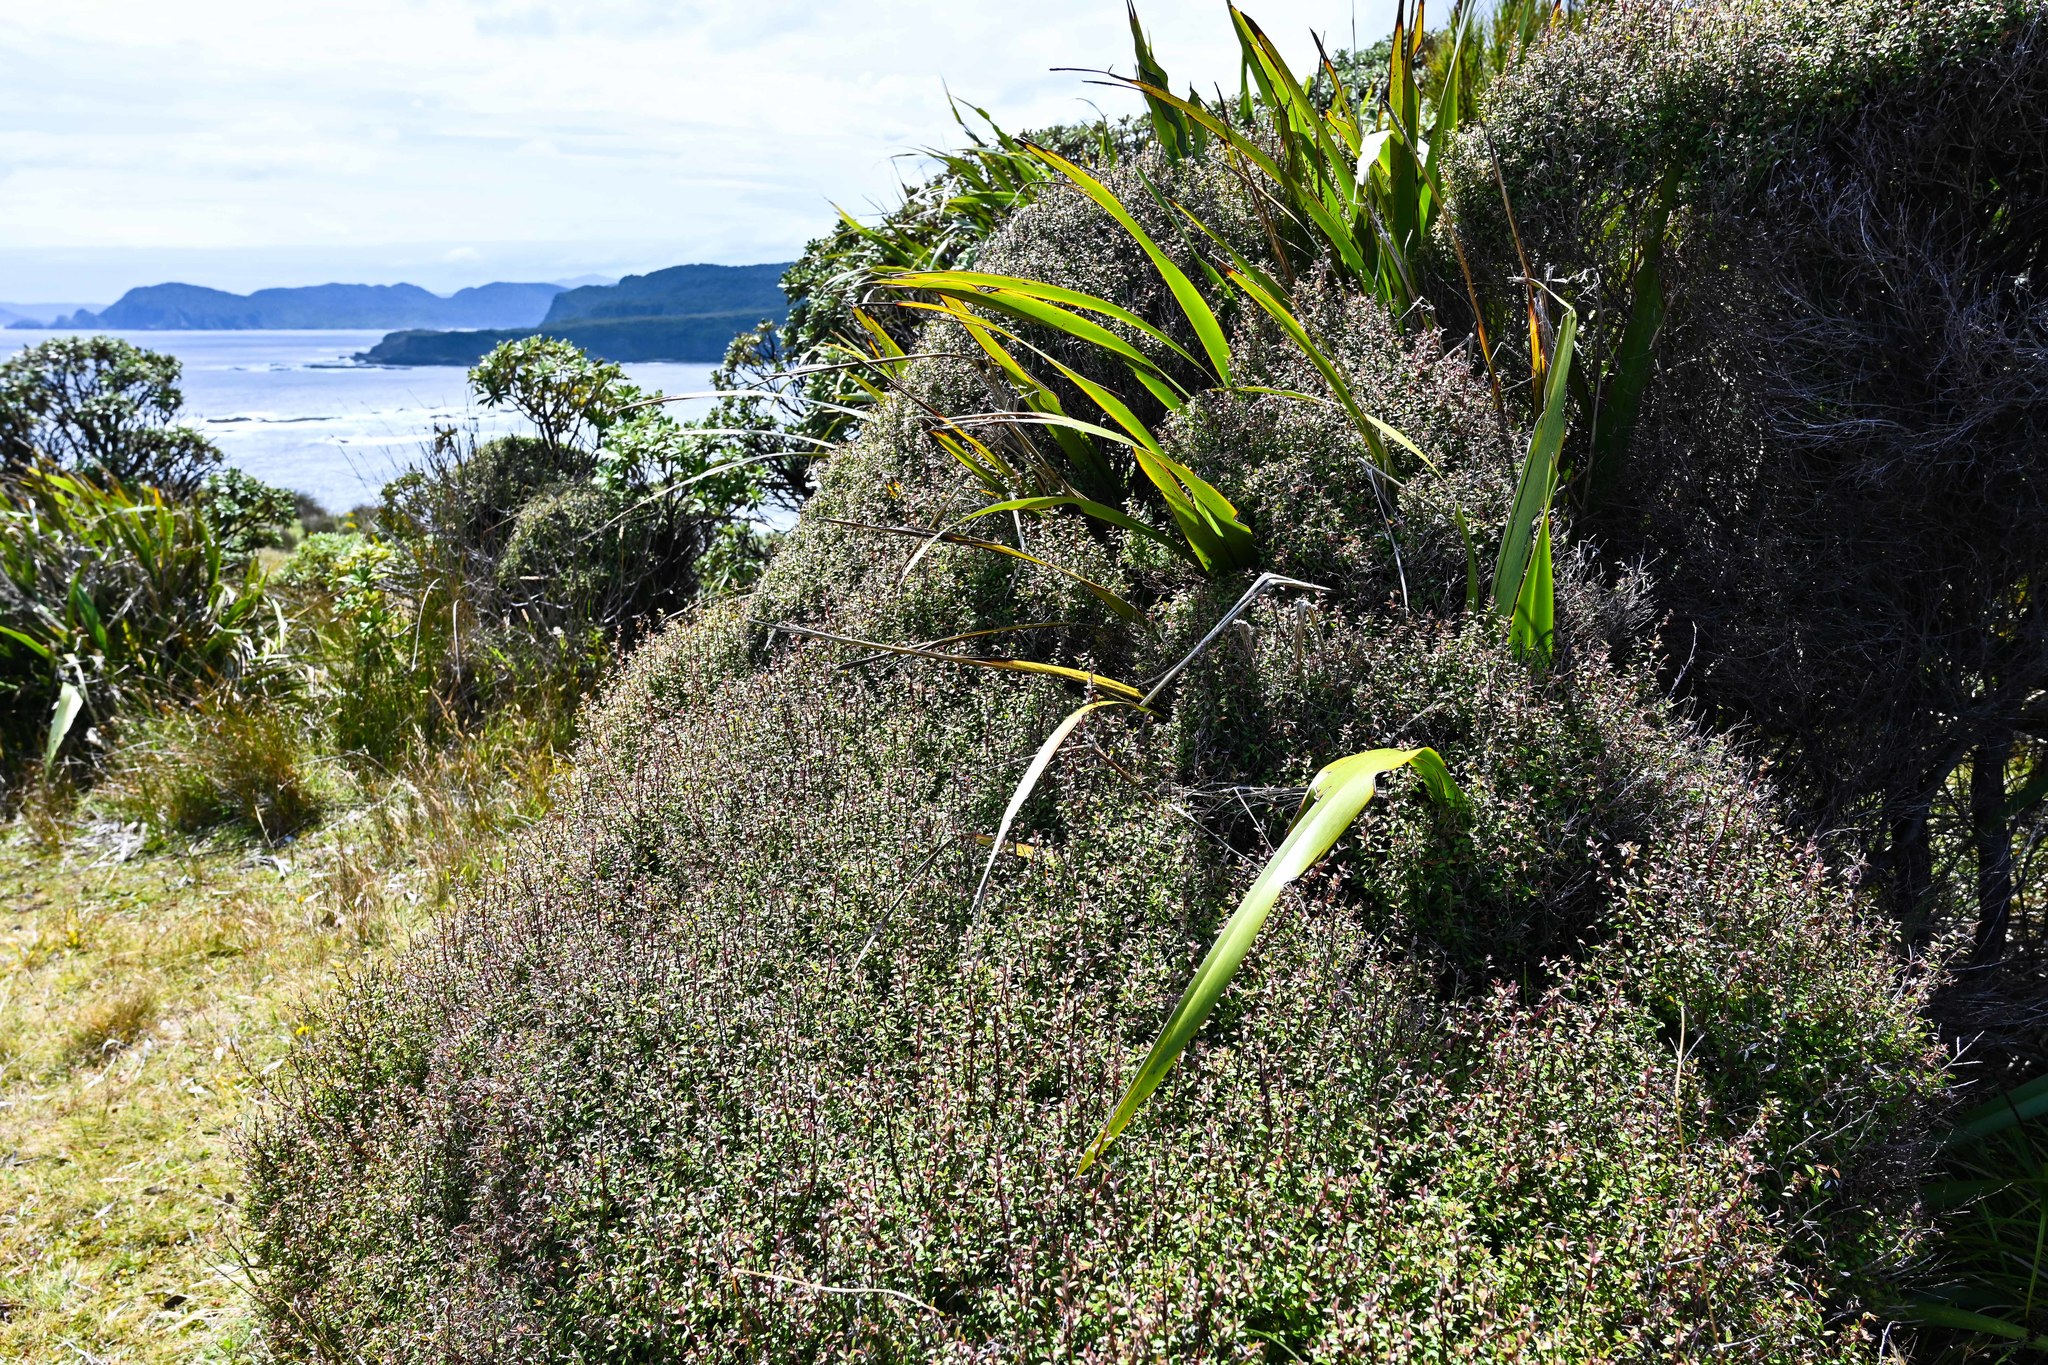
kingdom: Plantae
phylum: Tracheophyta
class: Magnoliopsida
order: Myrtales
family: Myrtaceae
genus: Leptospermum
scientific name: Leptospermum scoparium
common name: Broom tea-tree
